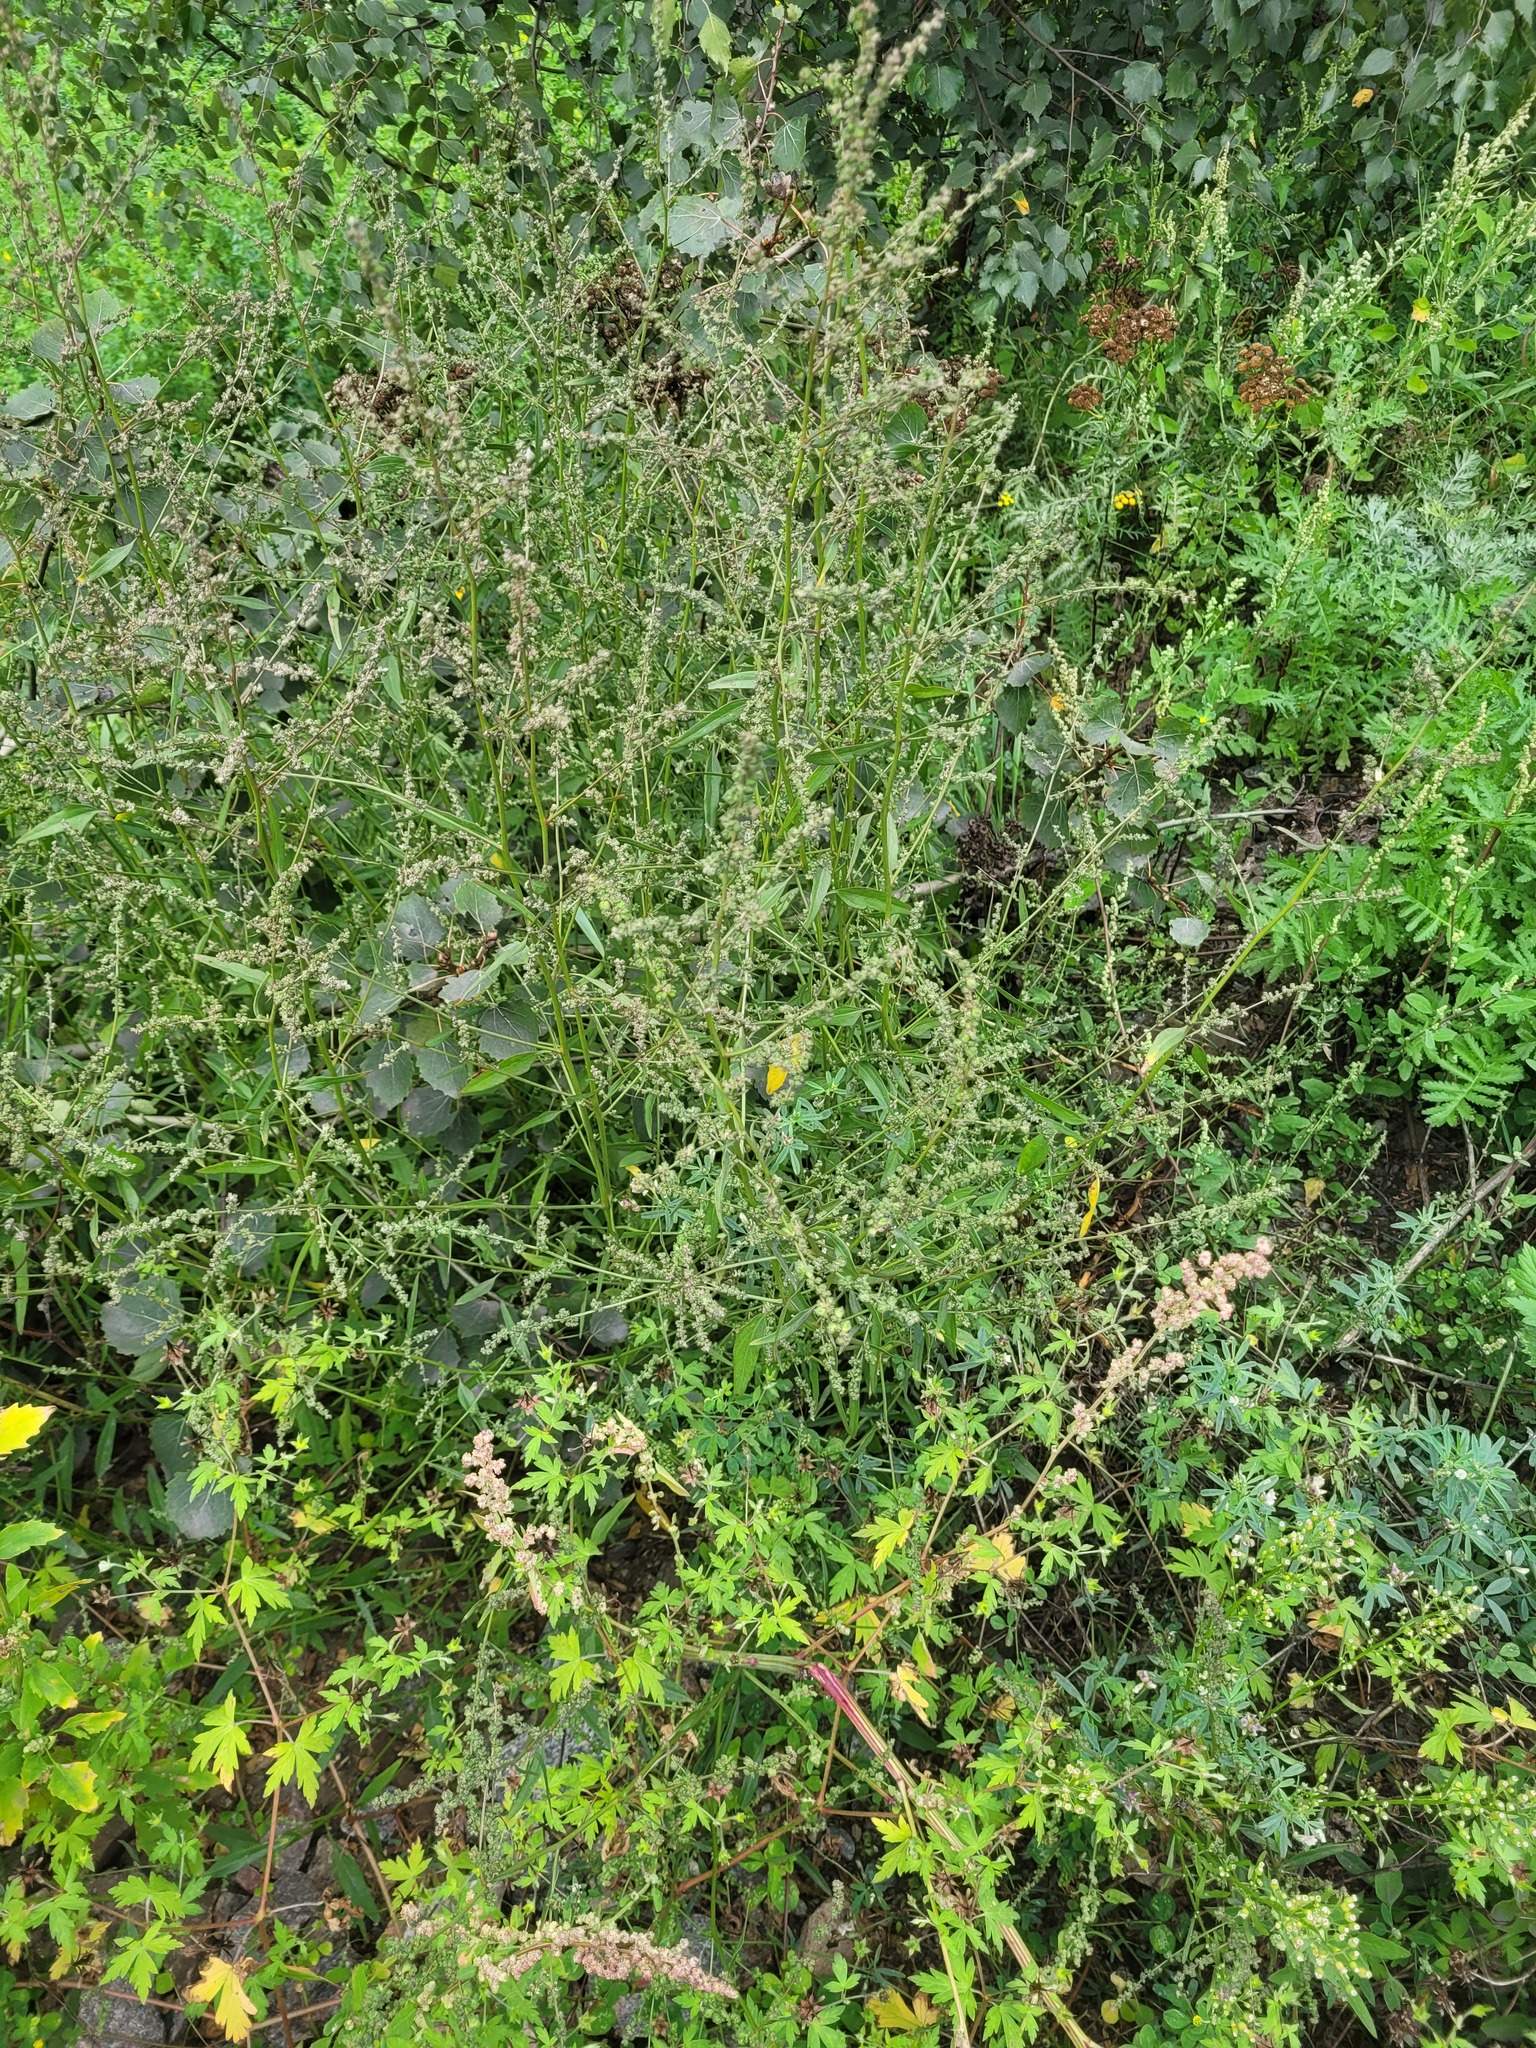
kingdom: Plantae
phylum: Tracheophyta
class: Magnoliopsida
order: Caryophyllales
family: Amaranthaceae
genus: Atriplex
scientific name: Atriplex patula
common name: Common orache
